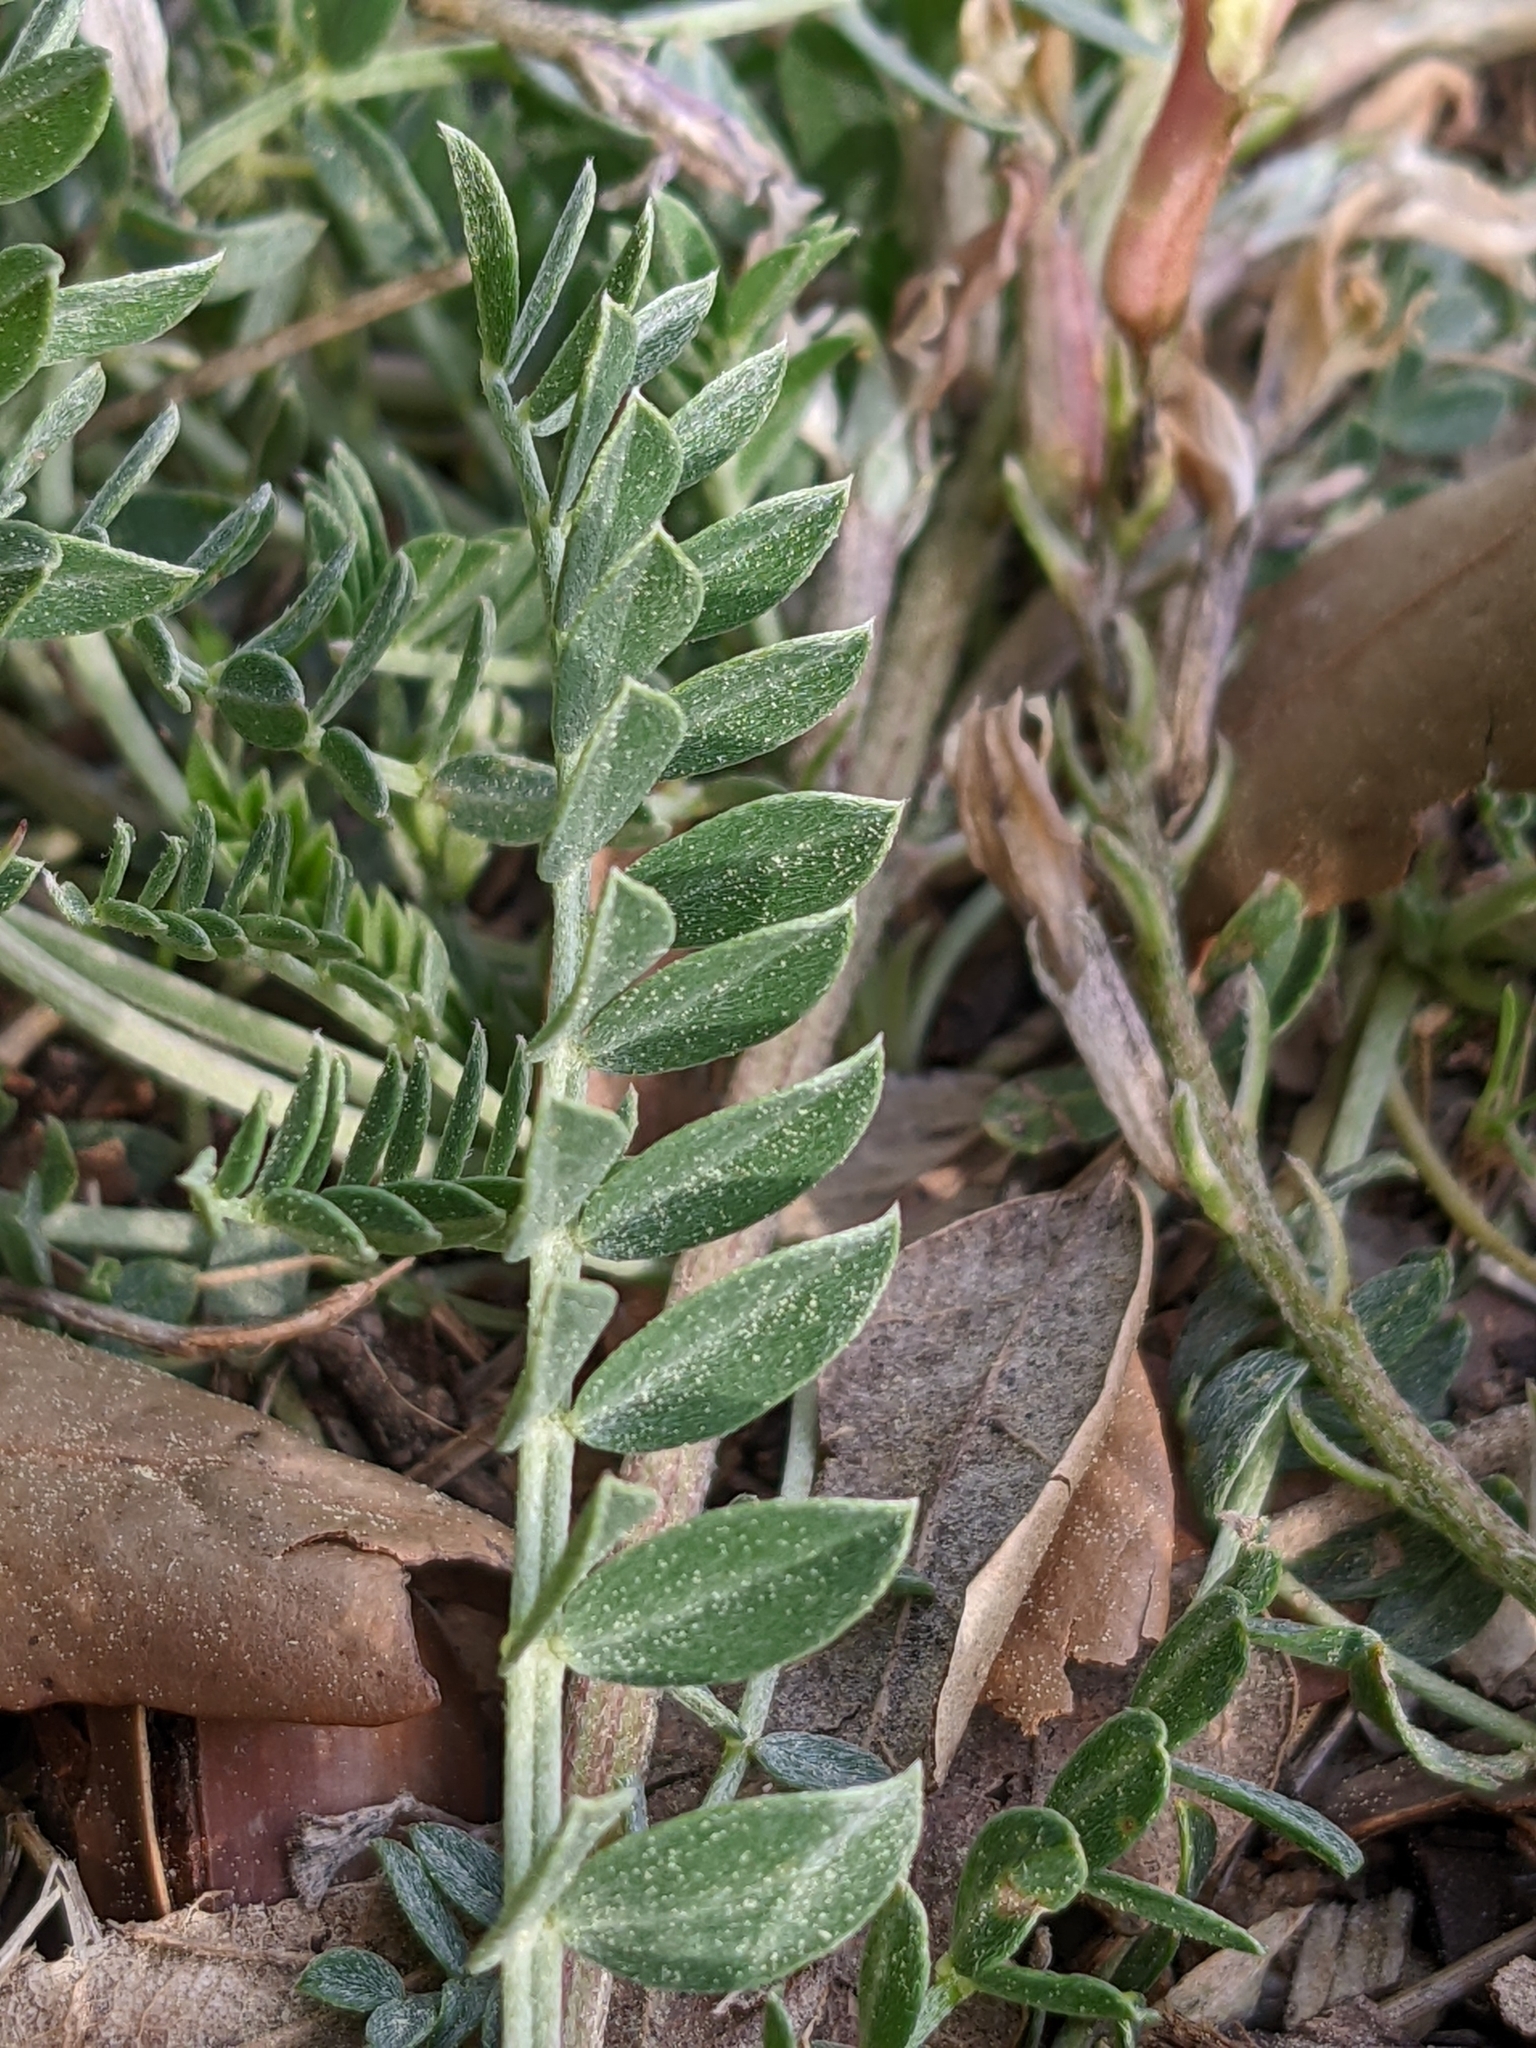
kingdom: Plantae
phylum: Tracheophyta
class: Magnoliopsida
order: Fabales
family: Fabaceae
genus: Astragalus
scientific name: Astragalus incanus
